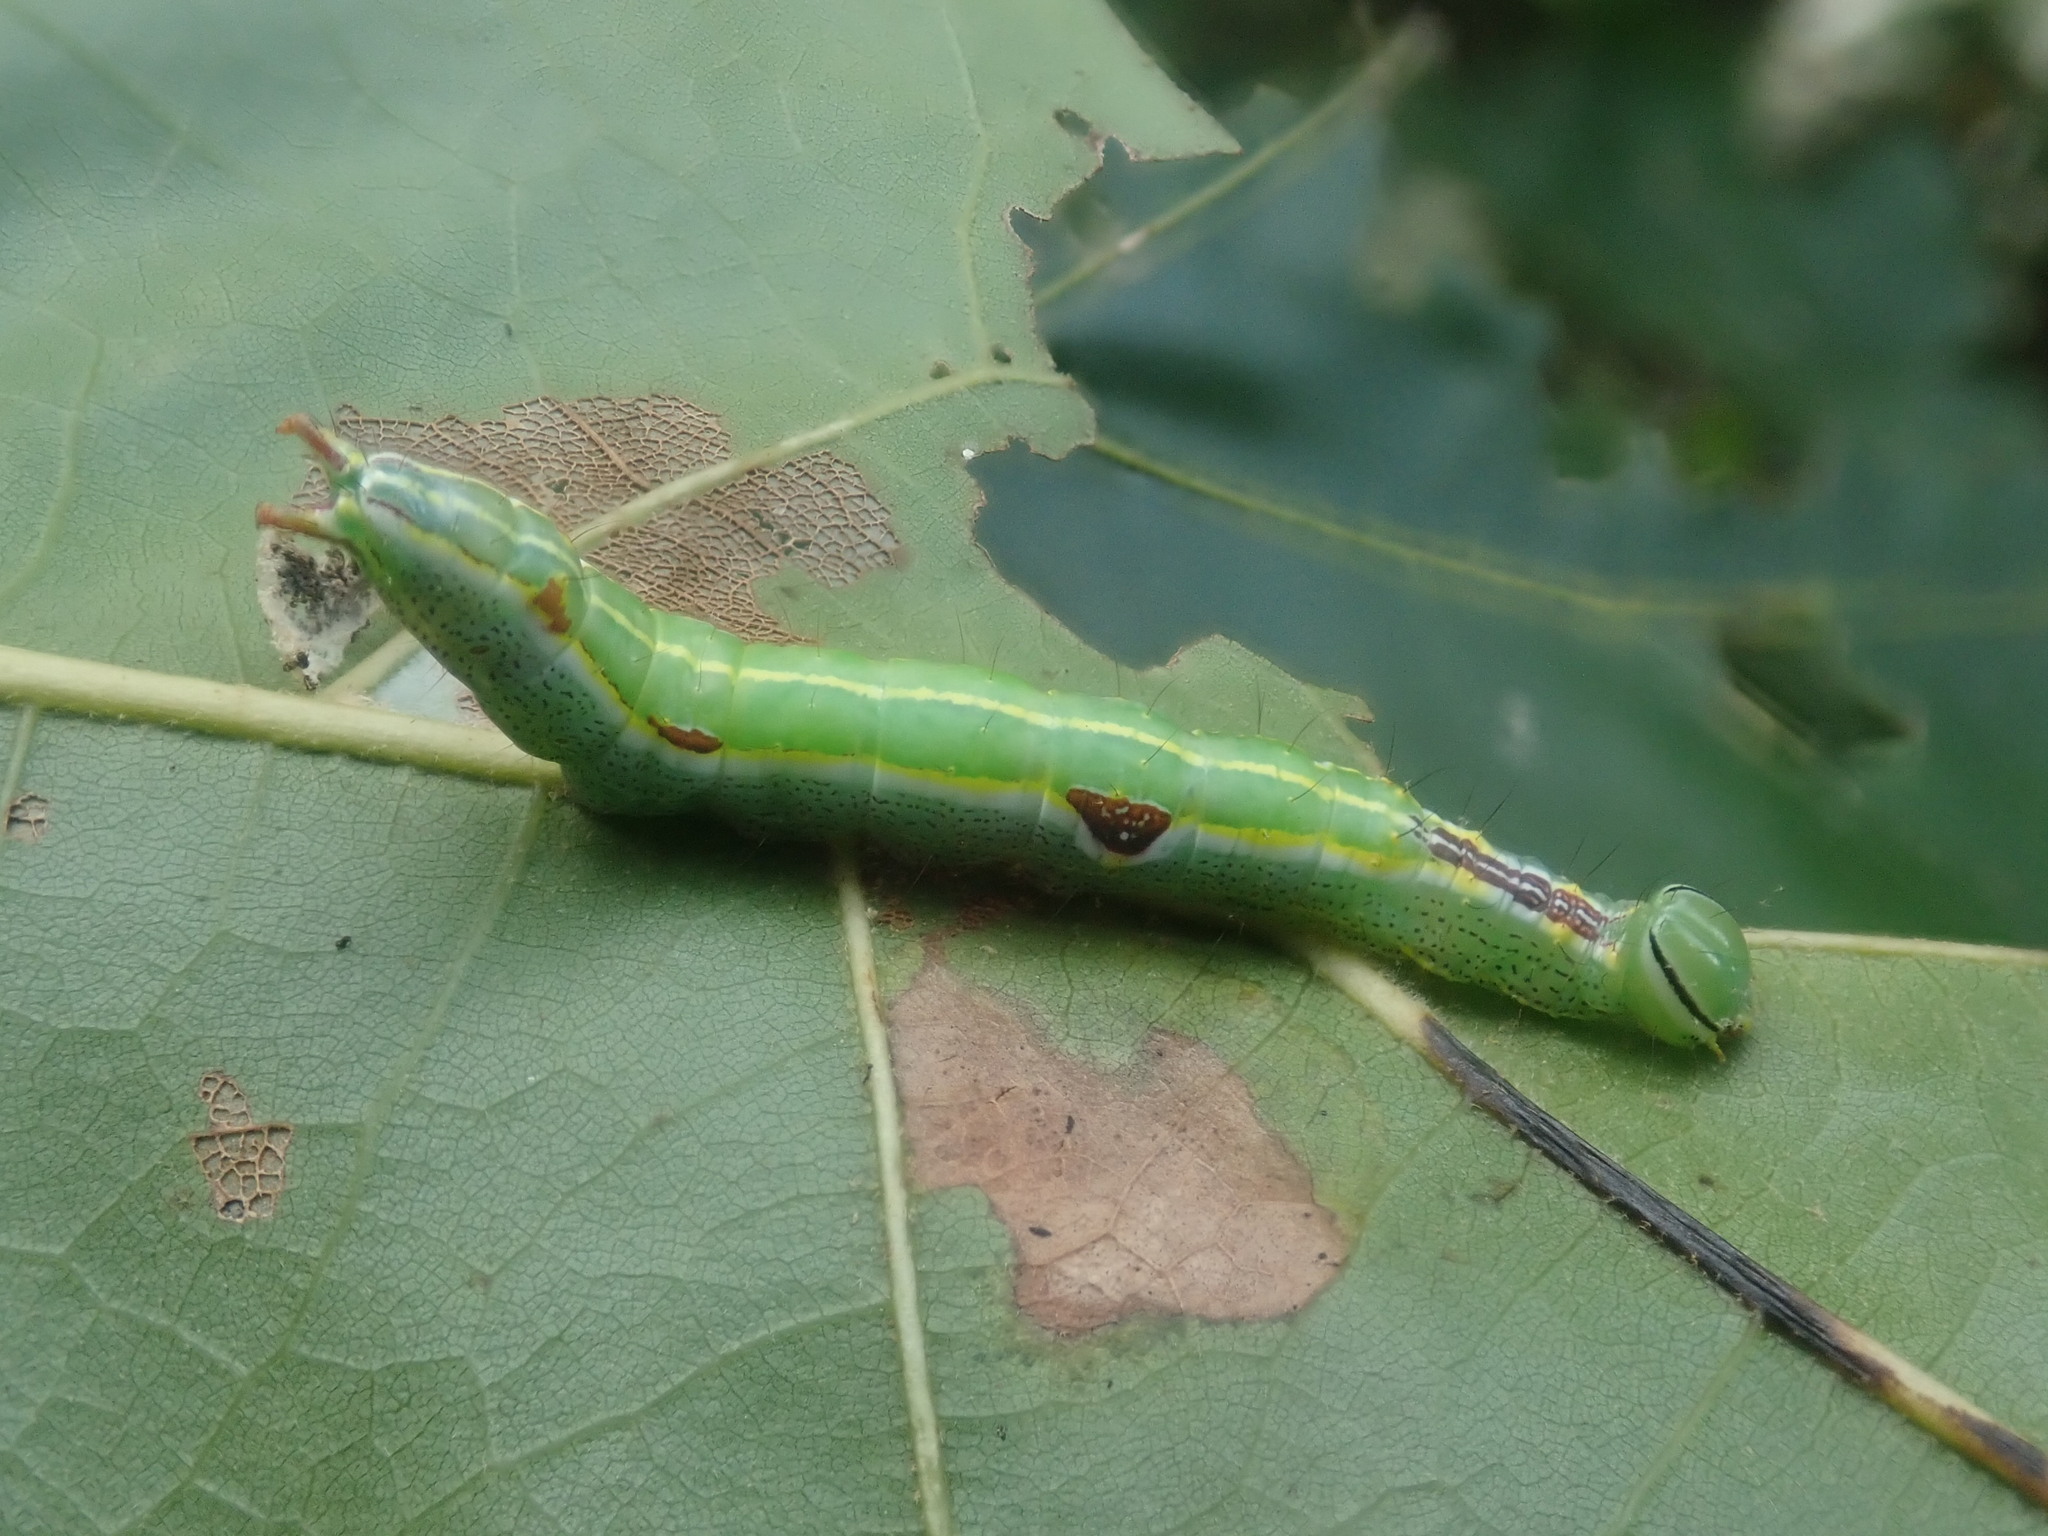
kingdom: Animalia
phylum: Arthropoda
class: Insecta
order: Lepidoptera
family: Notodontidae
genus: Lochmaeus
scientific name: Lochmaeus manteo
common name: Variable oakleaf caterpillar moth
